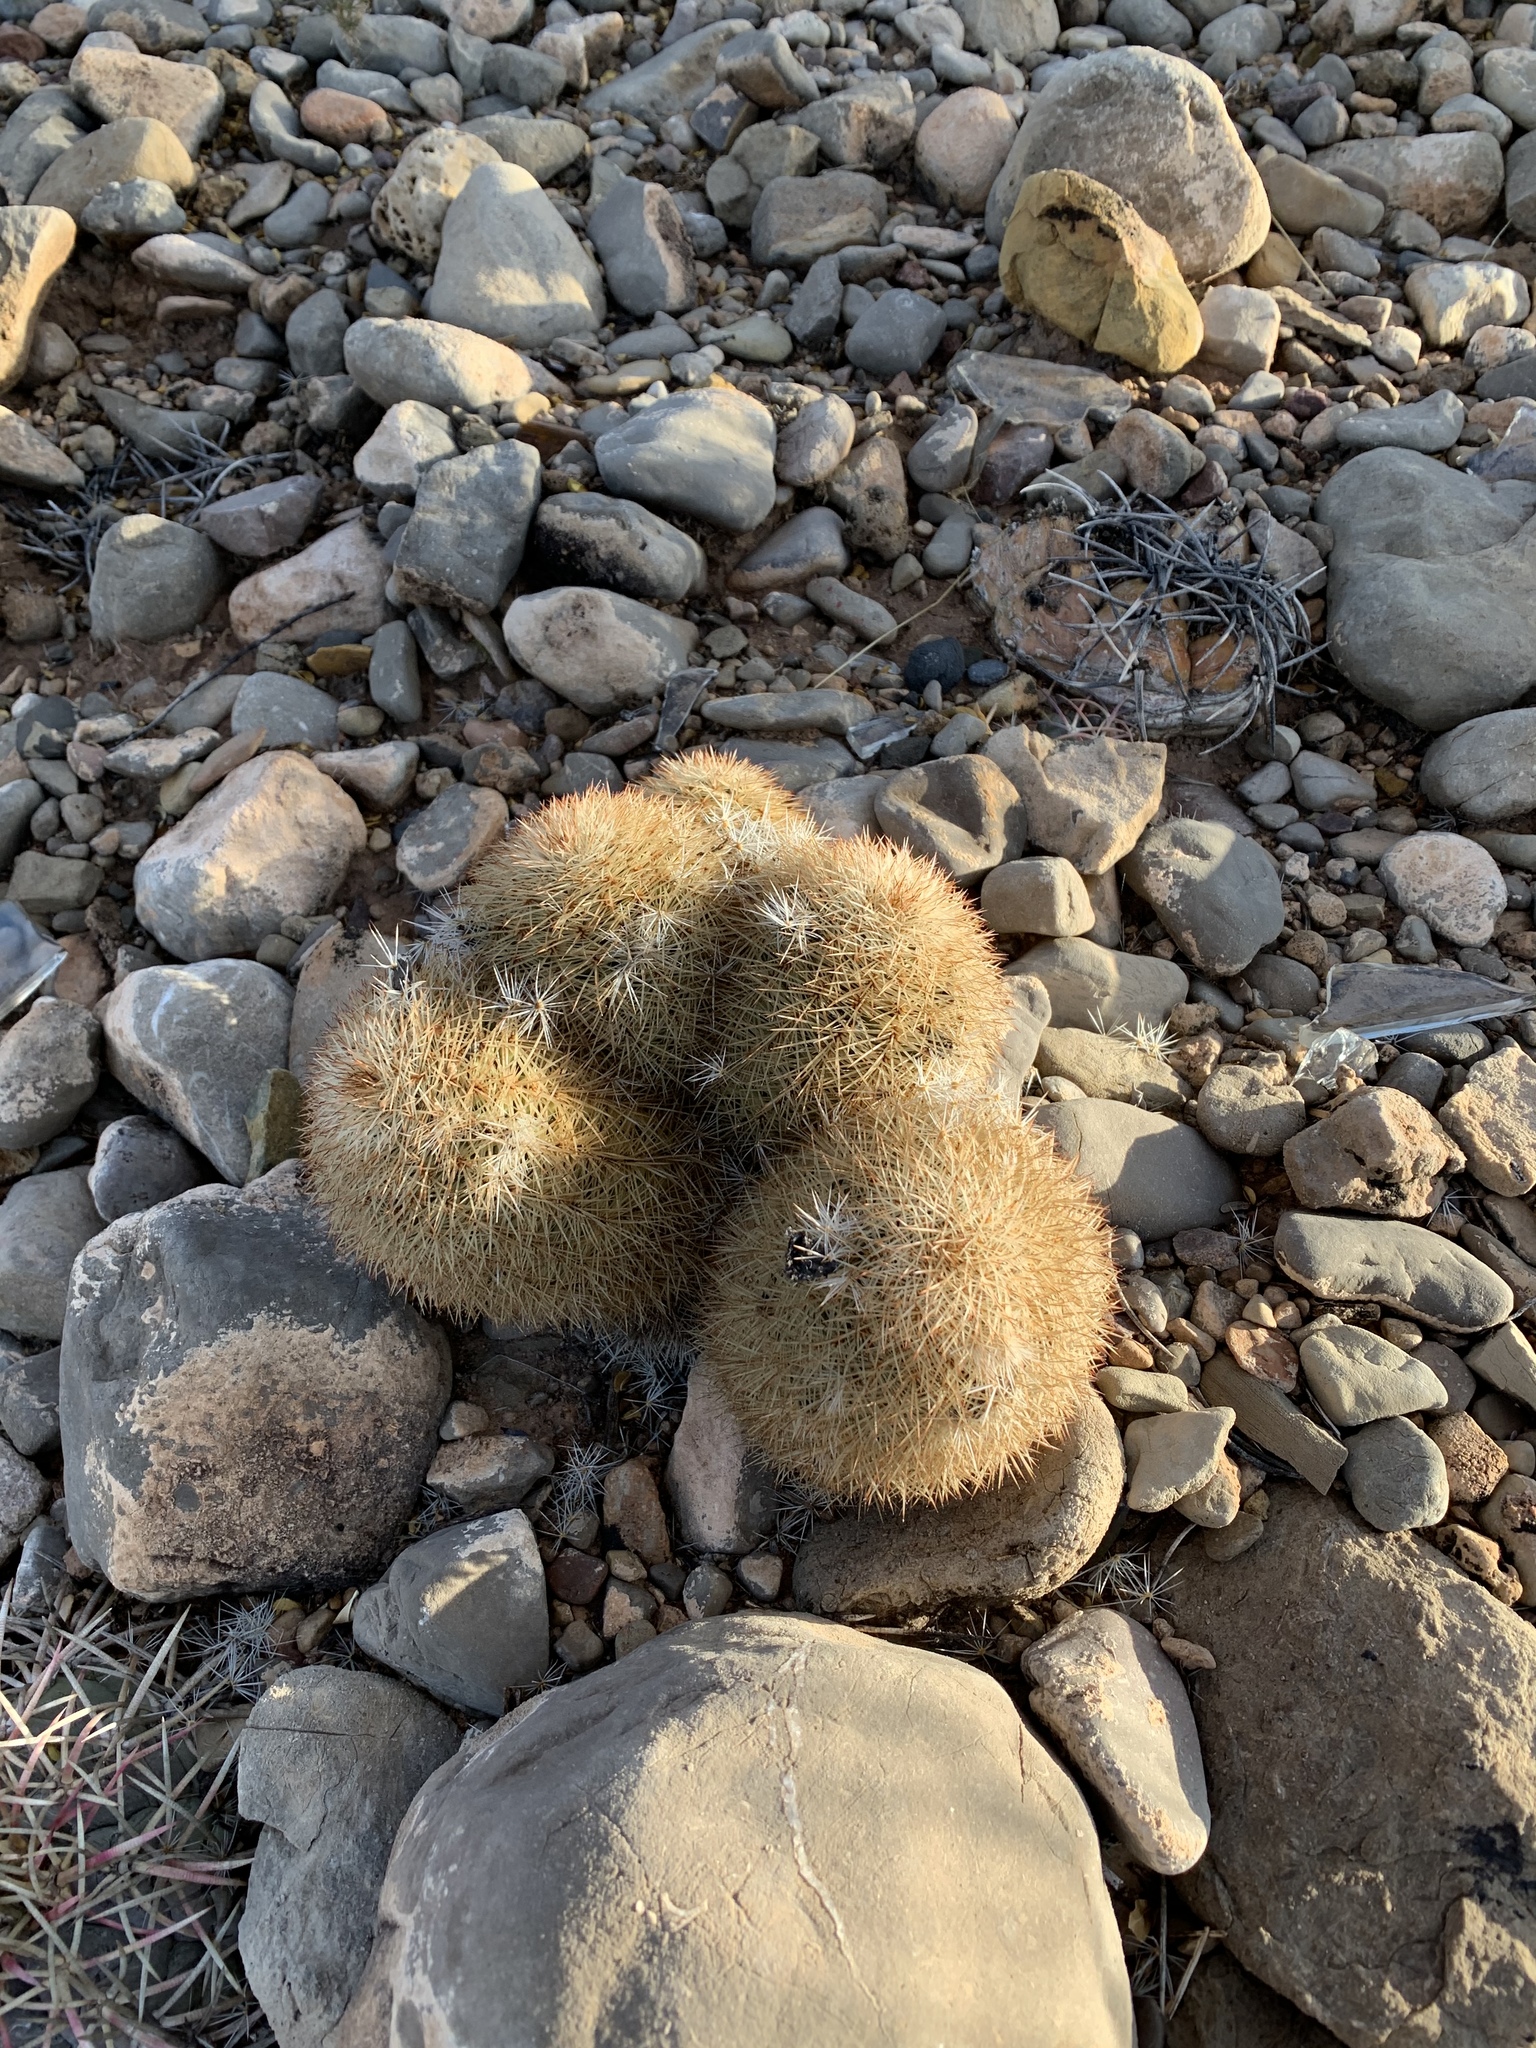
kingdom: Plantae
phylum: Tracheophyta
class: Magnoliopsida
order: Caryophyllales
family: Cactaceae
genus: Echinocereus
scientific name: Echinocereus dasyacanthus
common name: Spiny hedgehog cactus
